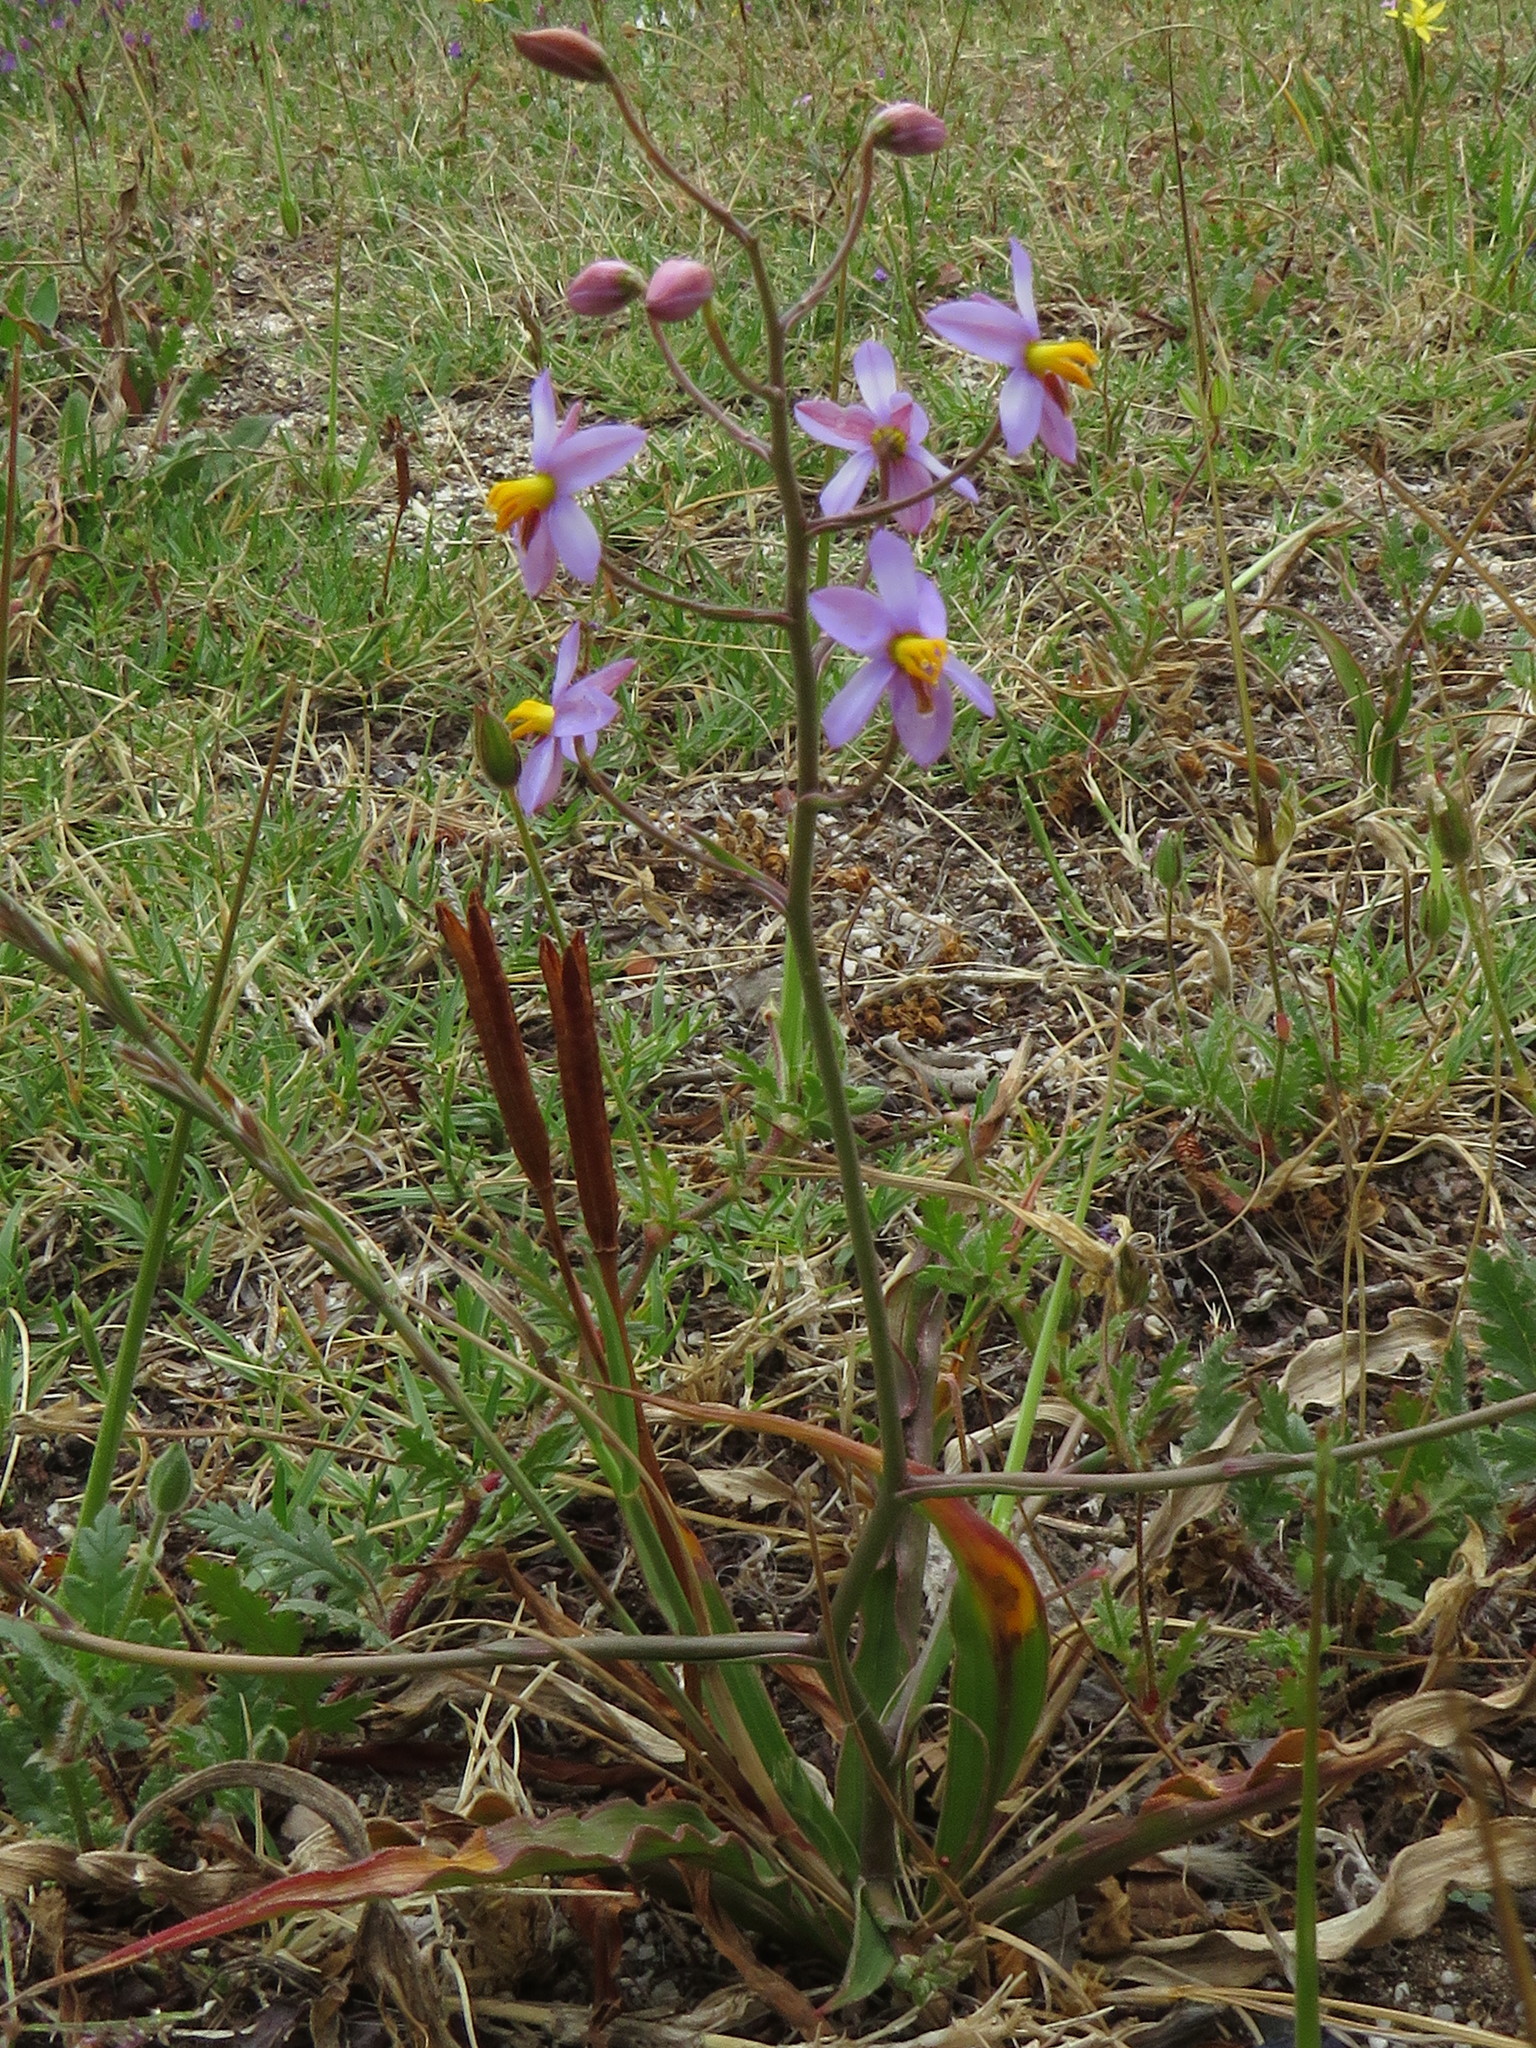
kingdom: Plantae
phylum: Tracheophyta
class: Liliopsida
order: Asparagales
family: Tecophilaeaceae
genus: Cyanella
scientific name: Cyanella hyacinthoides
